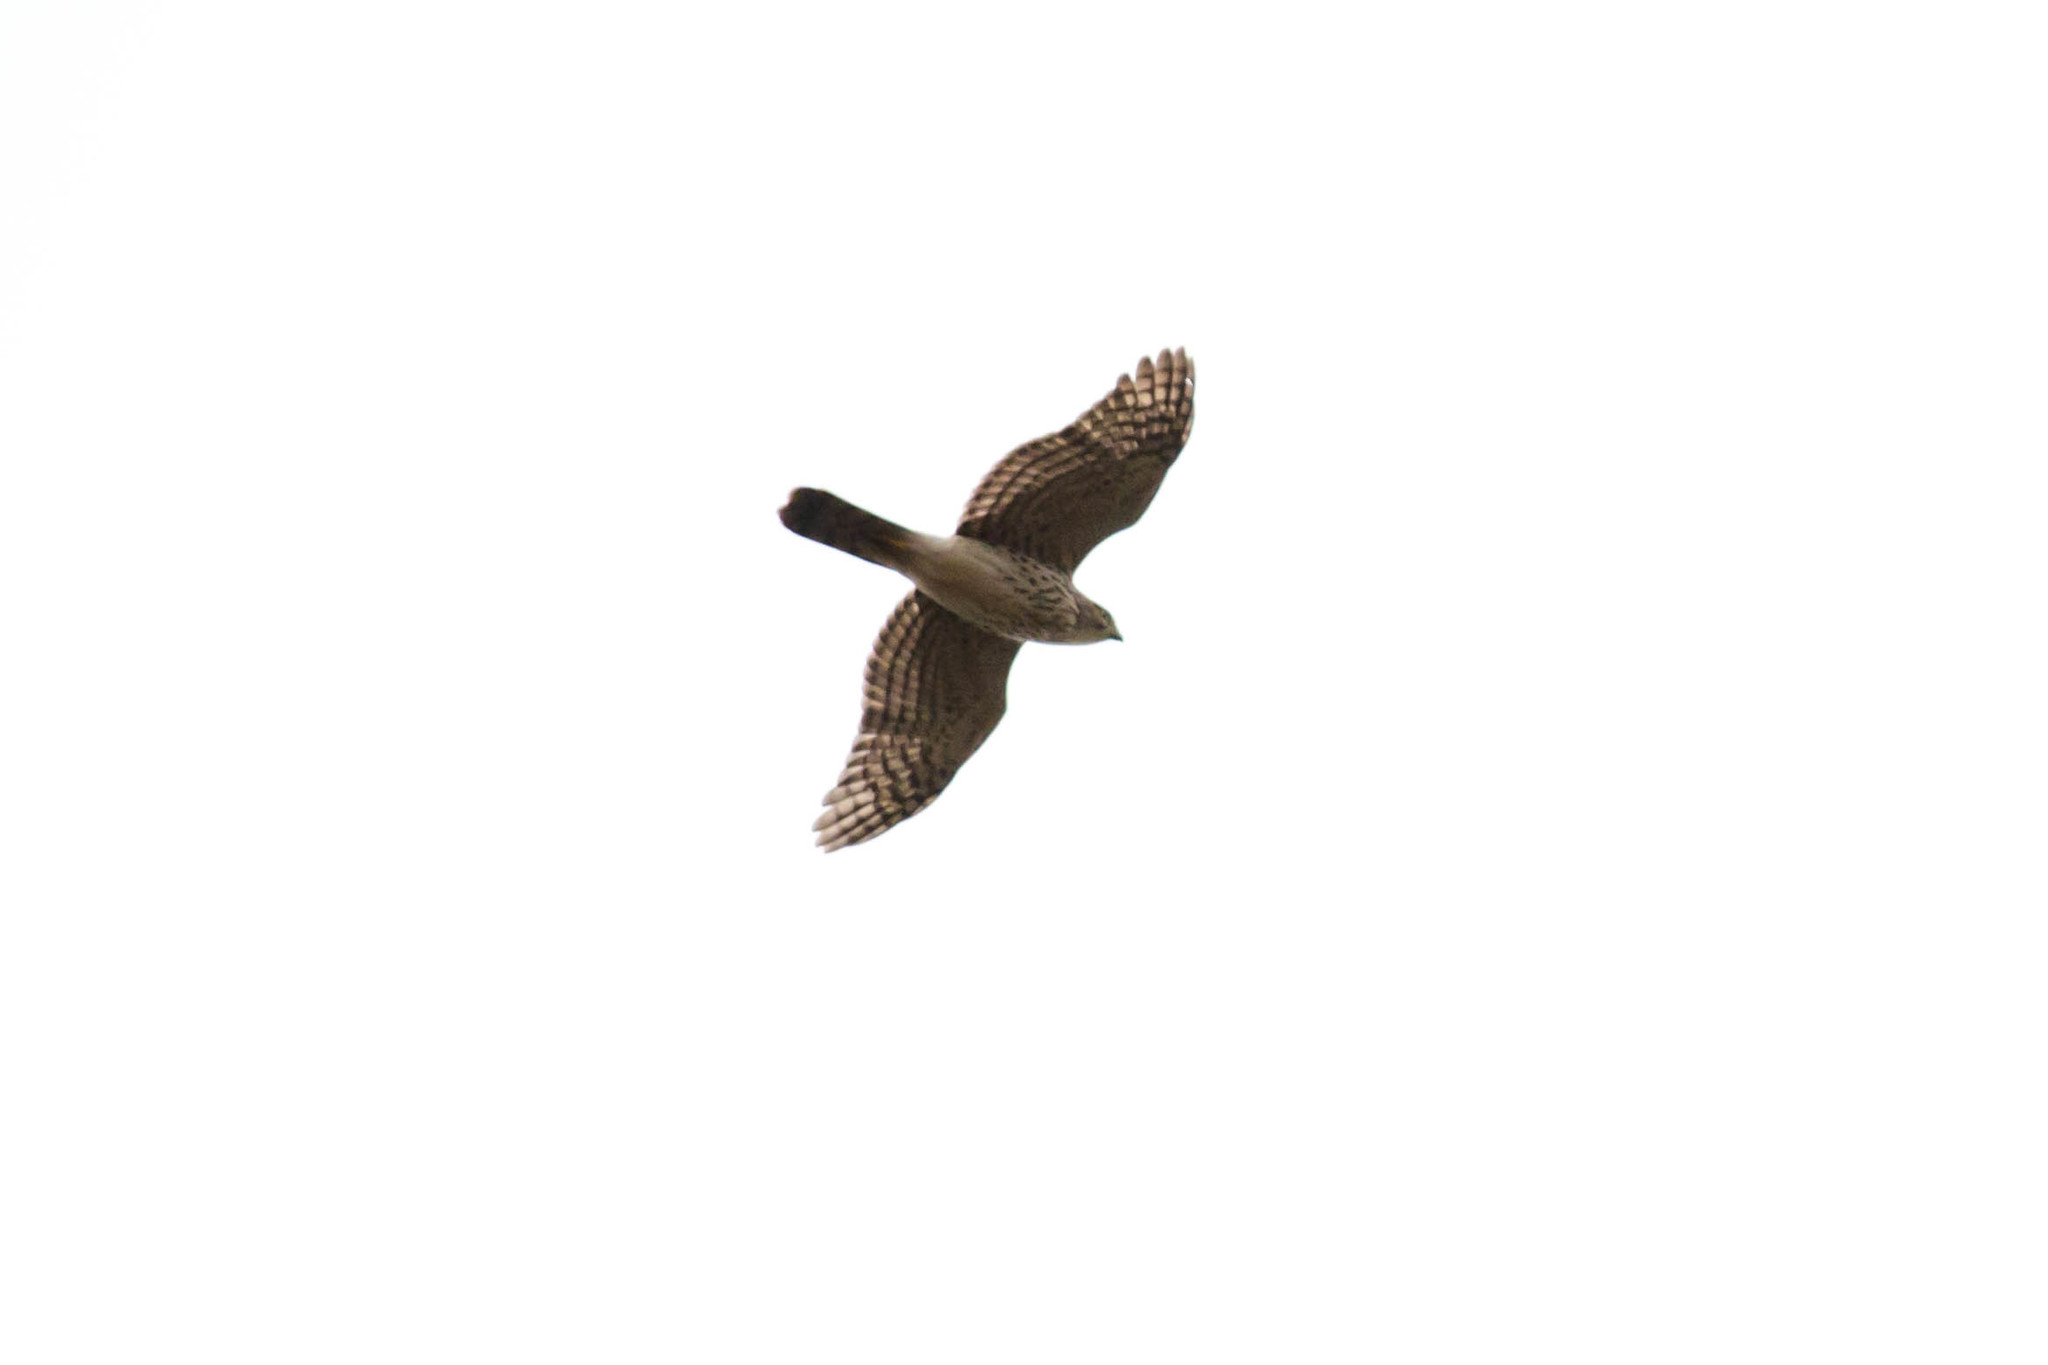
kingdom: Animalia
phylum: Chordata
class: Aves
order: Accipitriformes
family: Accipitridae
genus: Accipiter
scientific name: Accipiter cooperii
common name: Cooper's hawk
